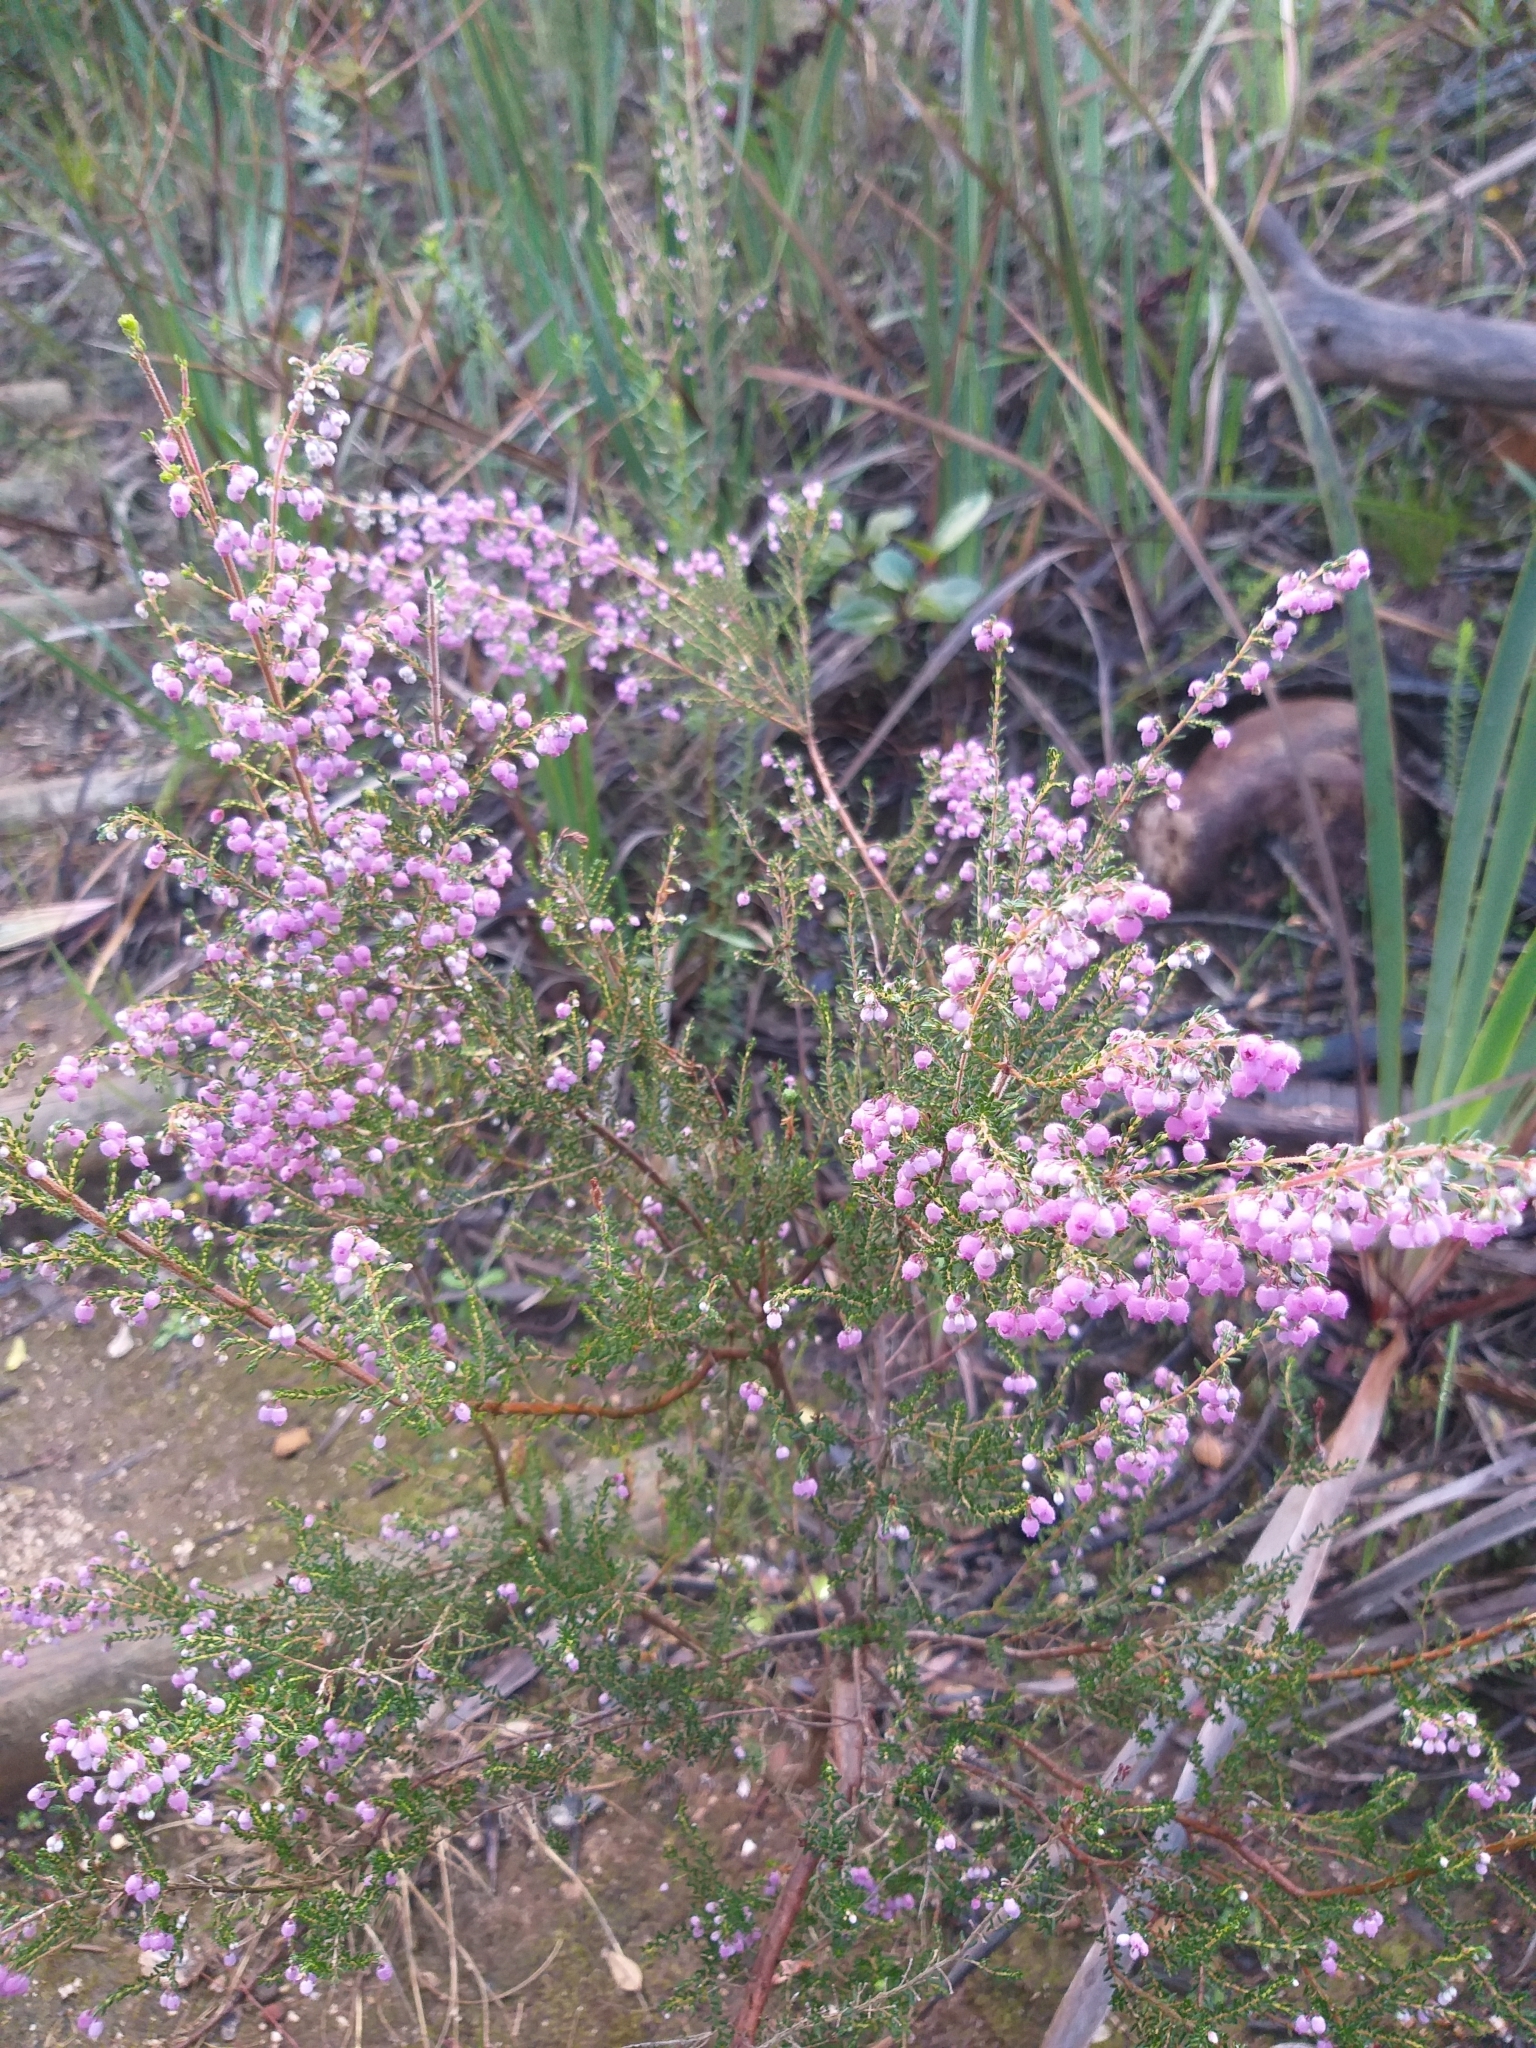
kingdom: Plantae
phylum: Tracheophyta
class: Magnoliopsida
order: Ericales
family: Ericaceae
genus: Erica
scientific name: Erica hirtiflora
